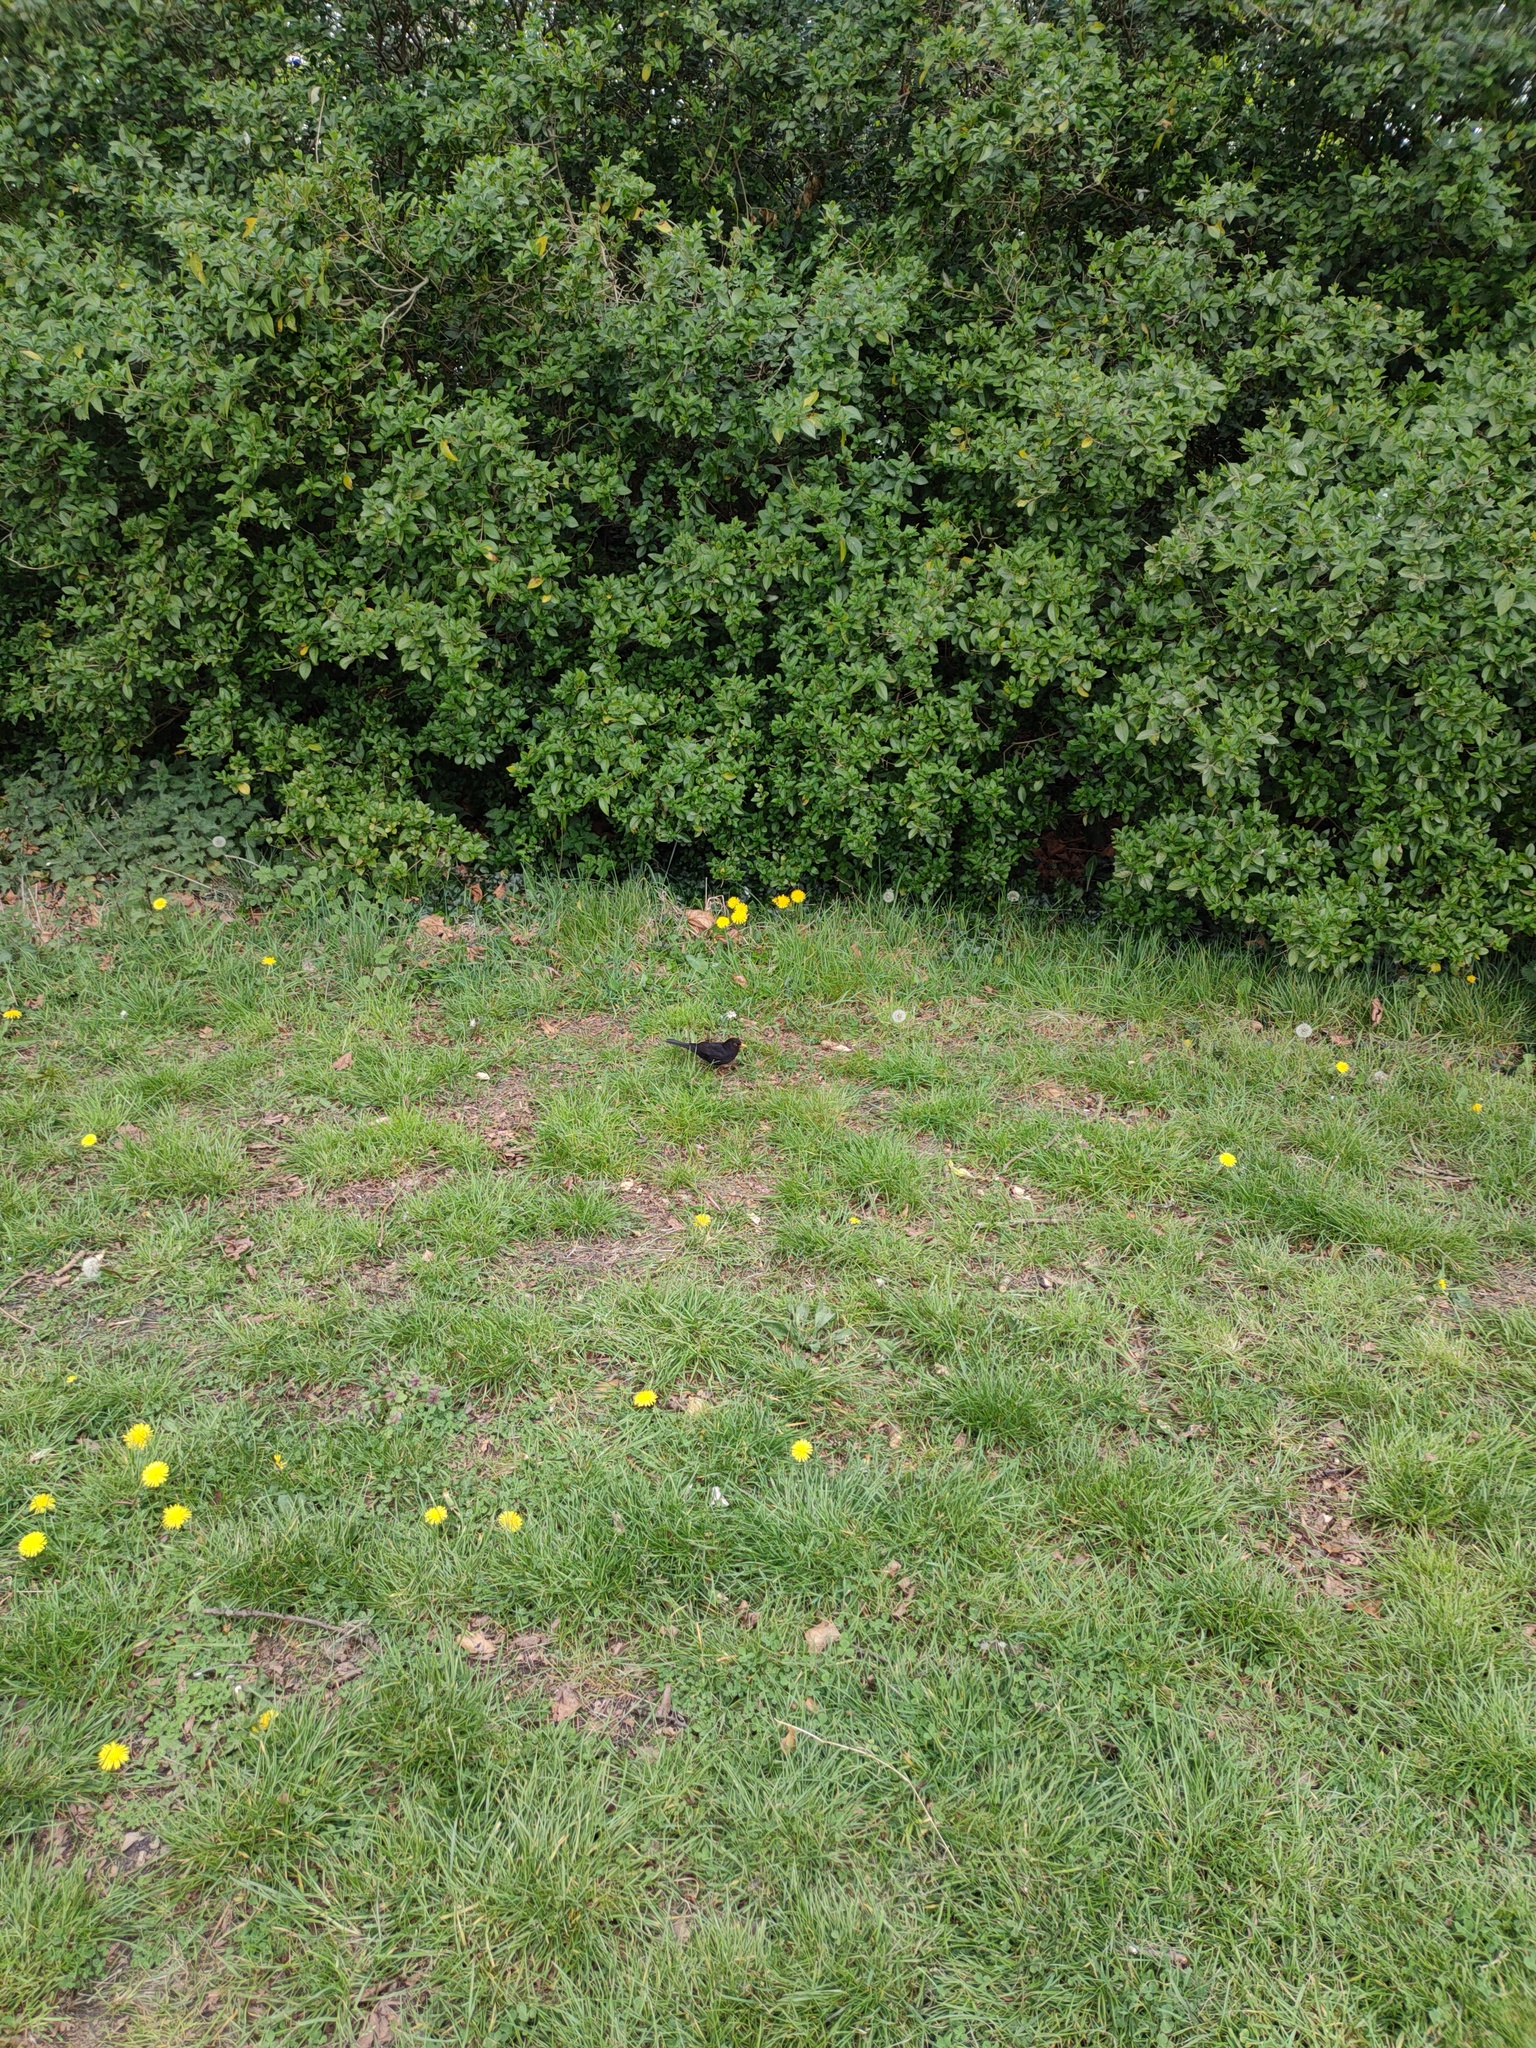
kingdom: Animalia
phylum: Chordata
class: Aves
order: Passeriformes
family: Turdidae
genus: Turdus
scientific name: Turdus merula
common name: Common blackbird
